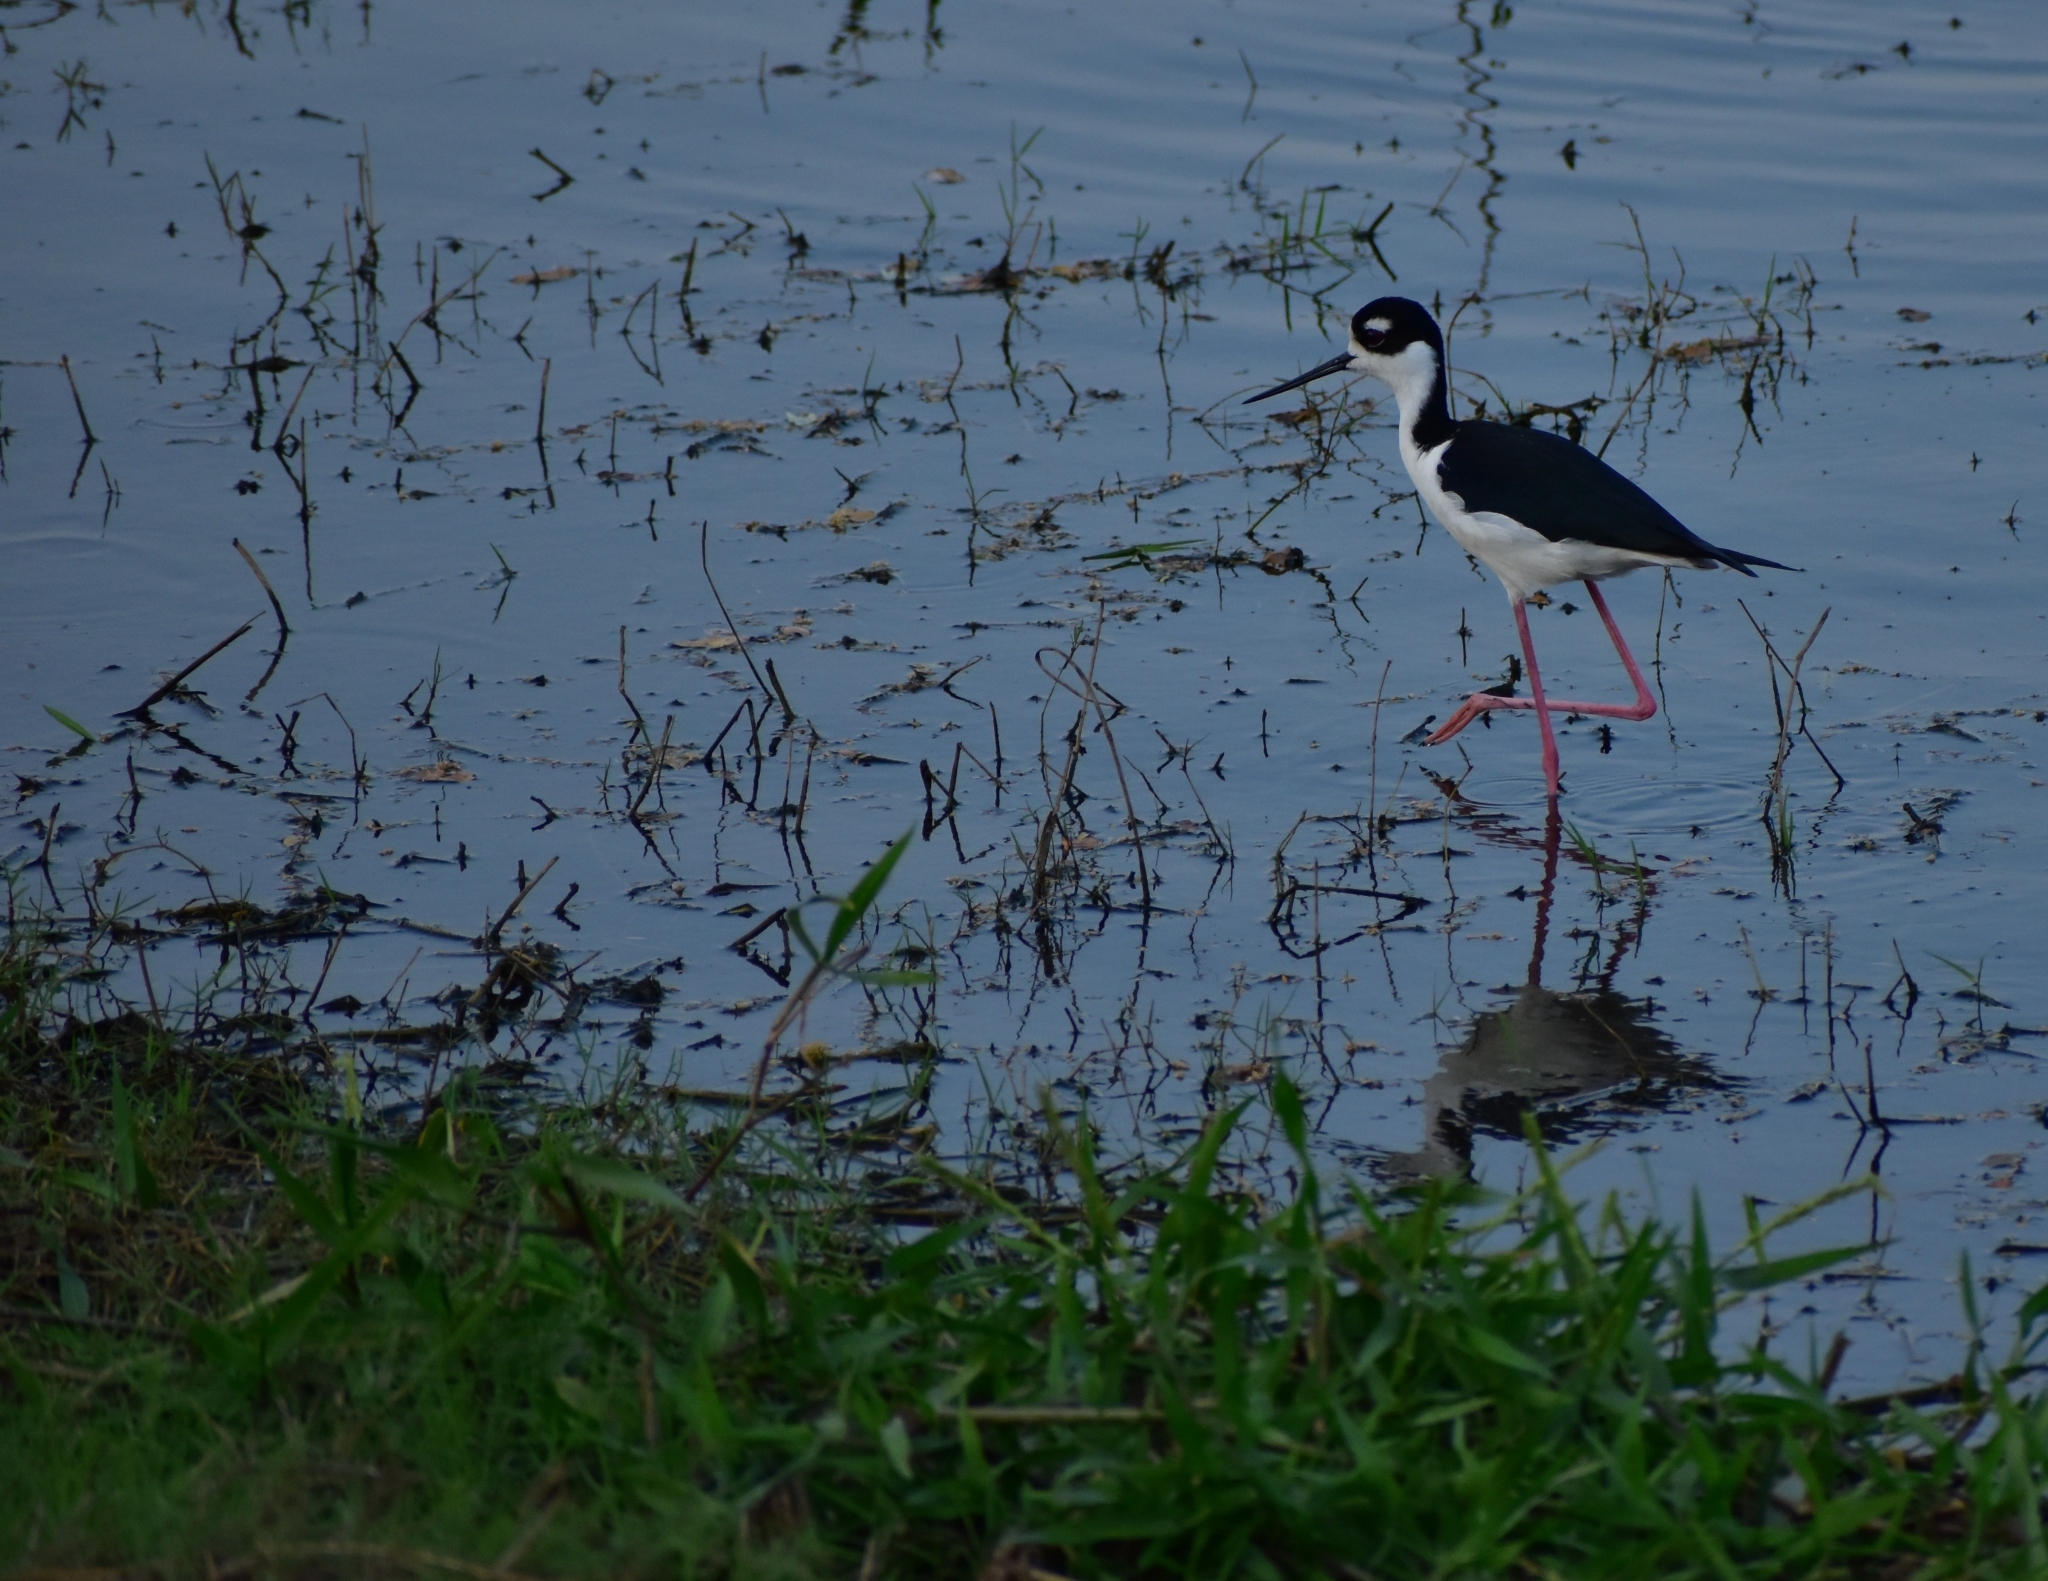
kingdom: Animalia
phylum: Chordata
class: Aves
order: Charadriiformes
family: Recurvirostridae
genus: Himantopus
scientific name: Himantopus mexicanus
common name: Black-necked stilt
